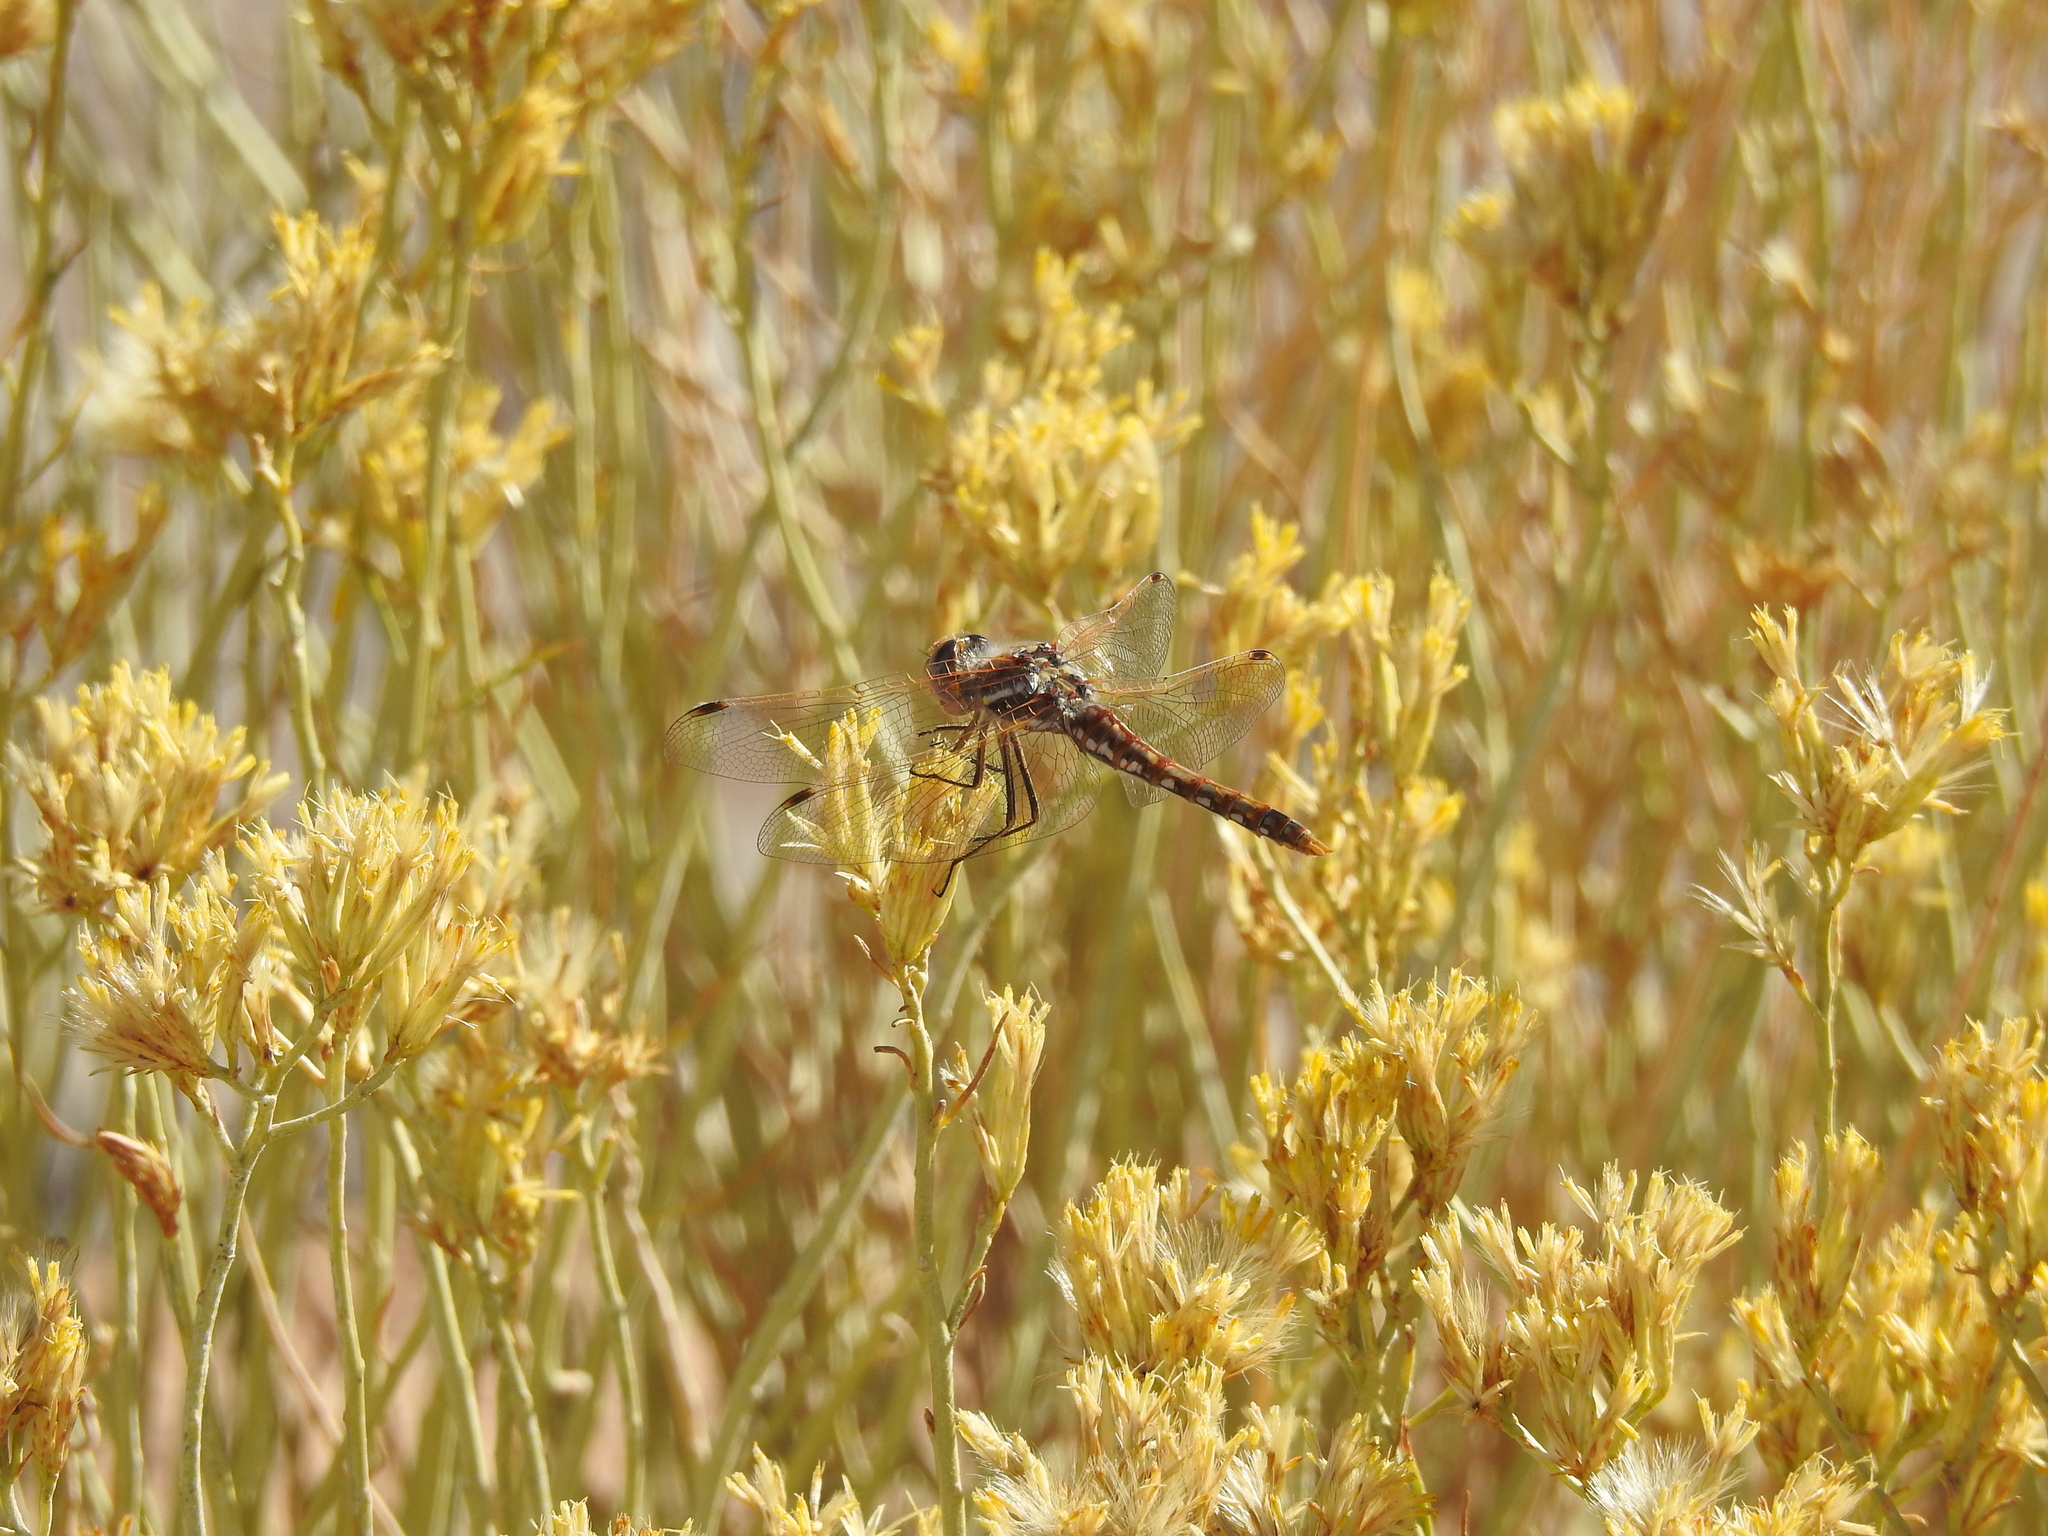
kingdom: Animalia
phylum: Arthropoda
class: Insecta
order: Odonata
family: Libellulidae
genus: Sympetrum
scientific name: Sympetrum corruptum
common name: Variegated meadowhawk
